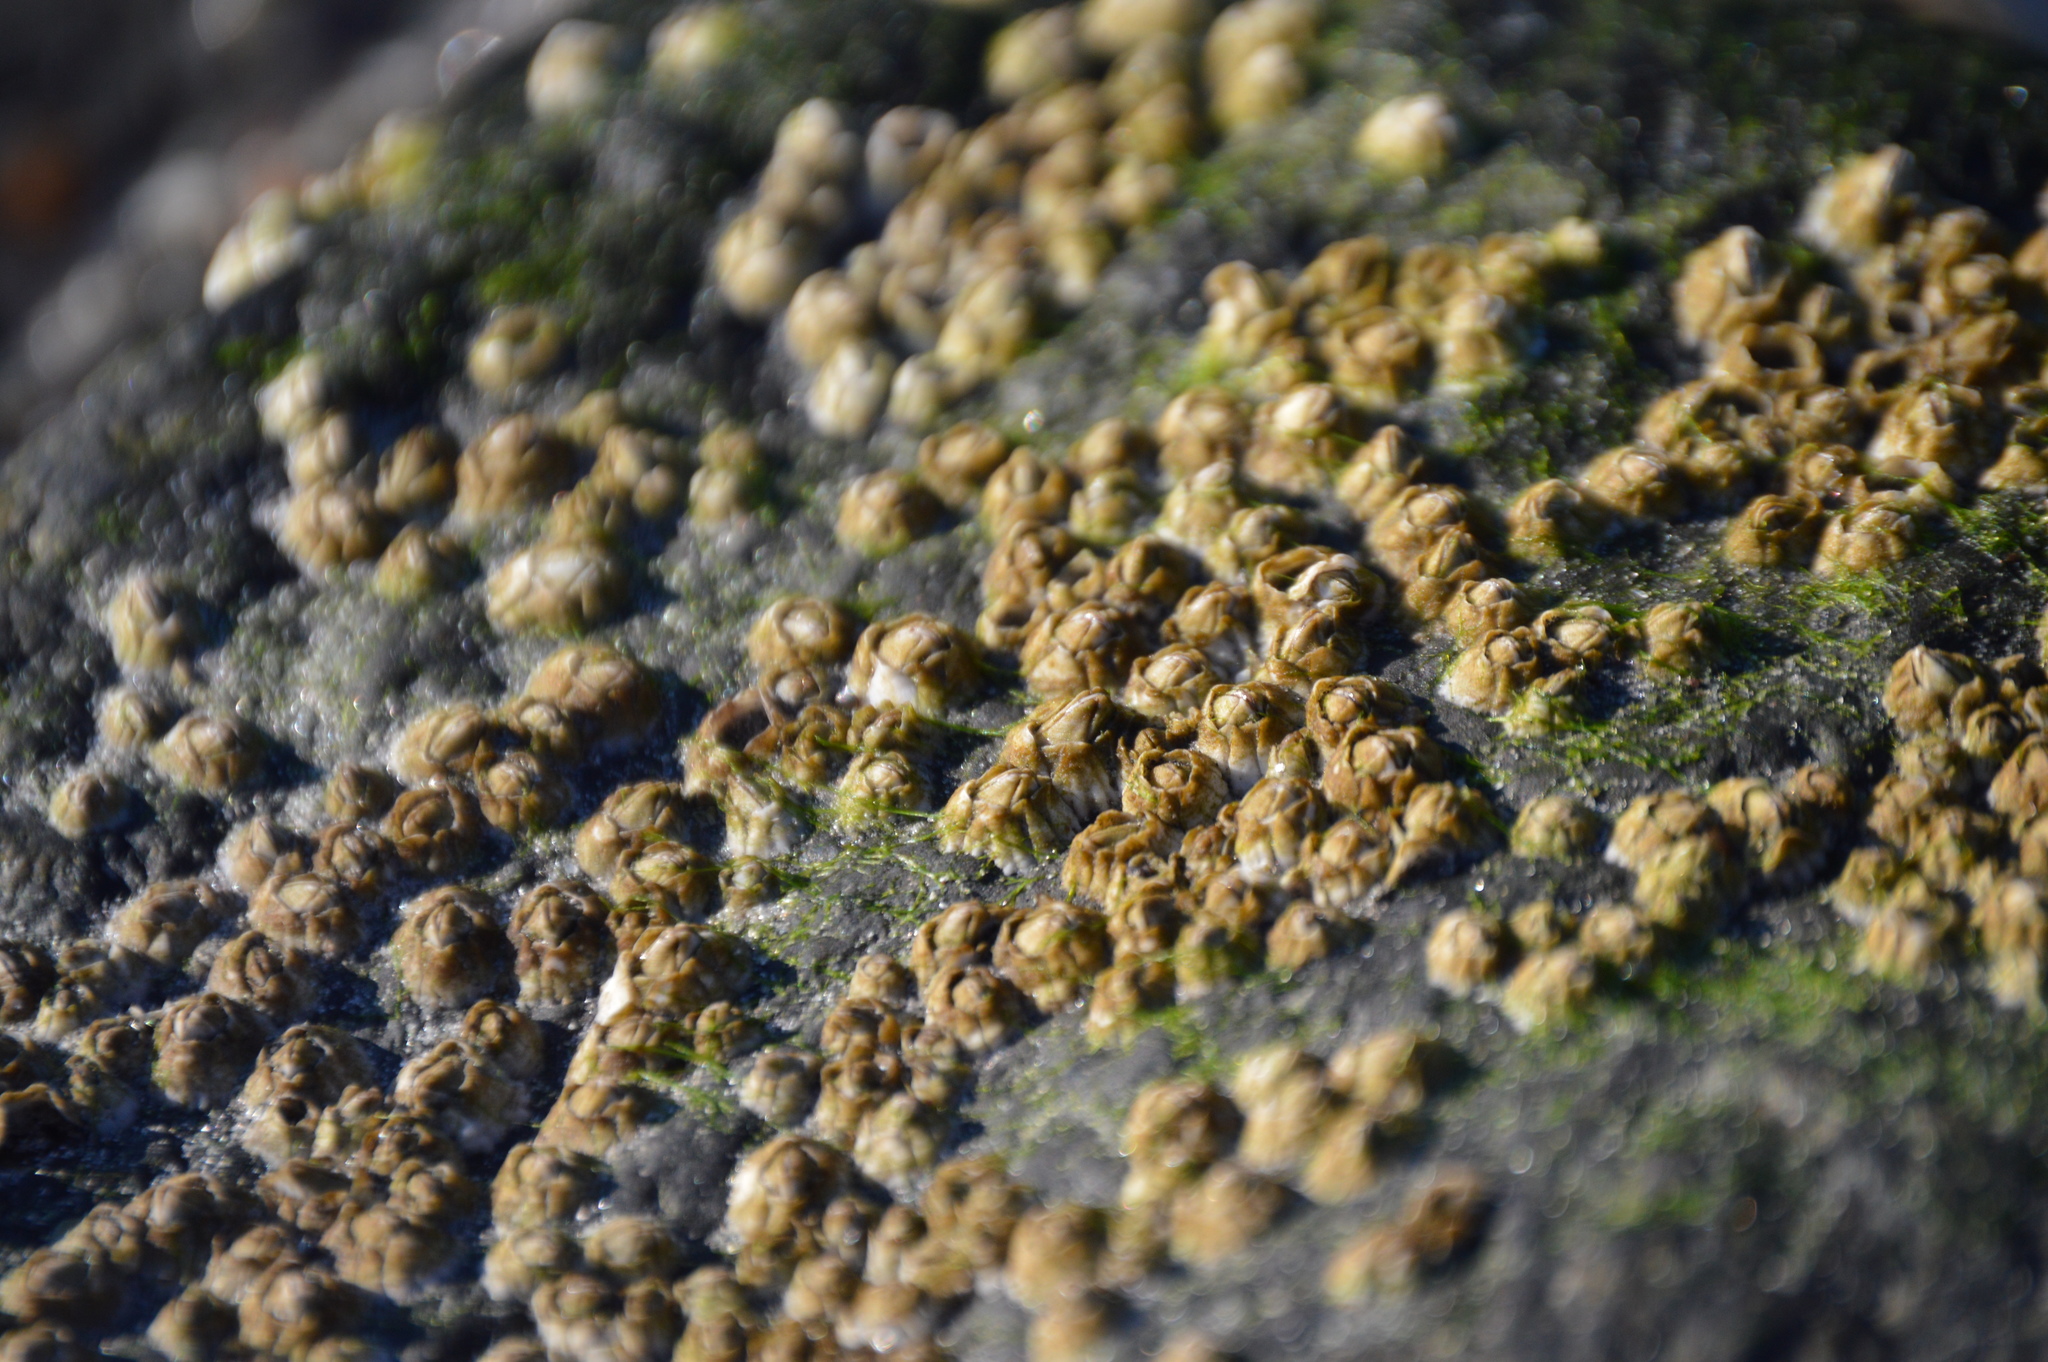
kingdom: Animalia
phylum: Arthropoda
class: Maxillopoda
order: Sessilia
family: Archaeobalanidae
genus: Semibalanus
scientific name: Semibalanus balanoides
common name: Acorn barnacle
